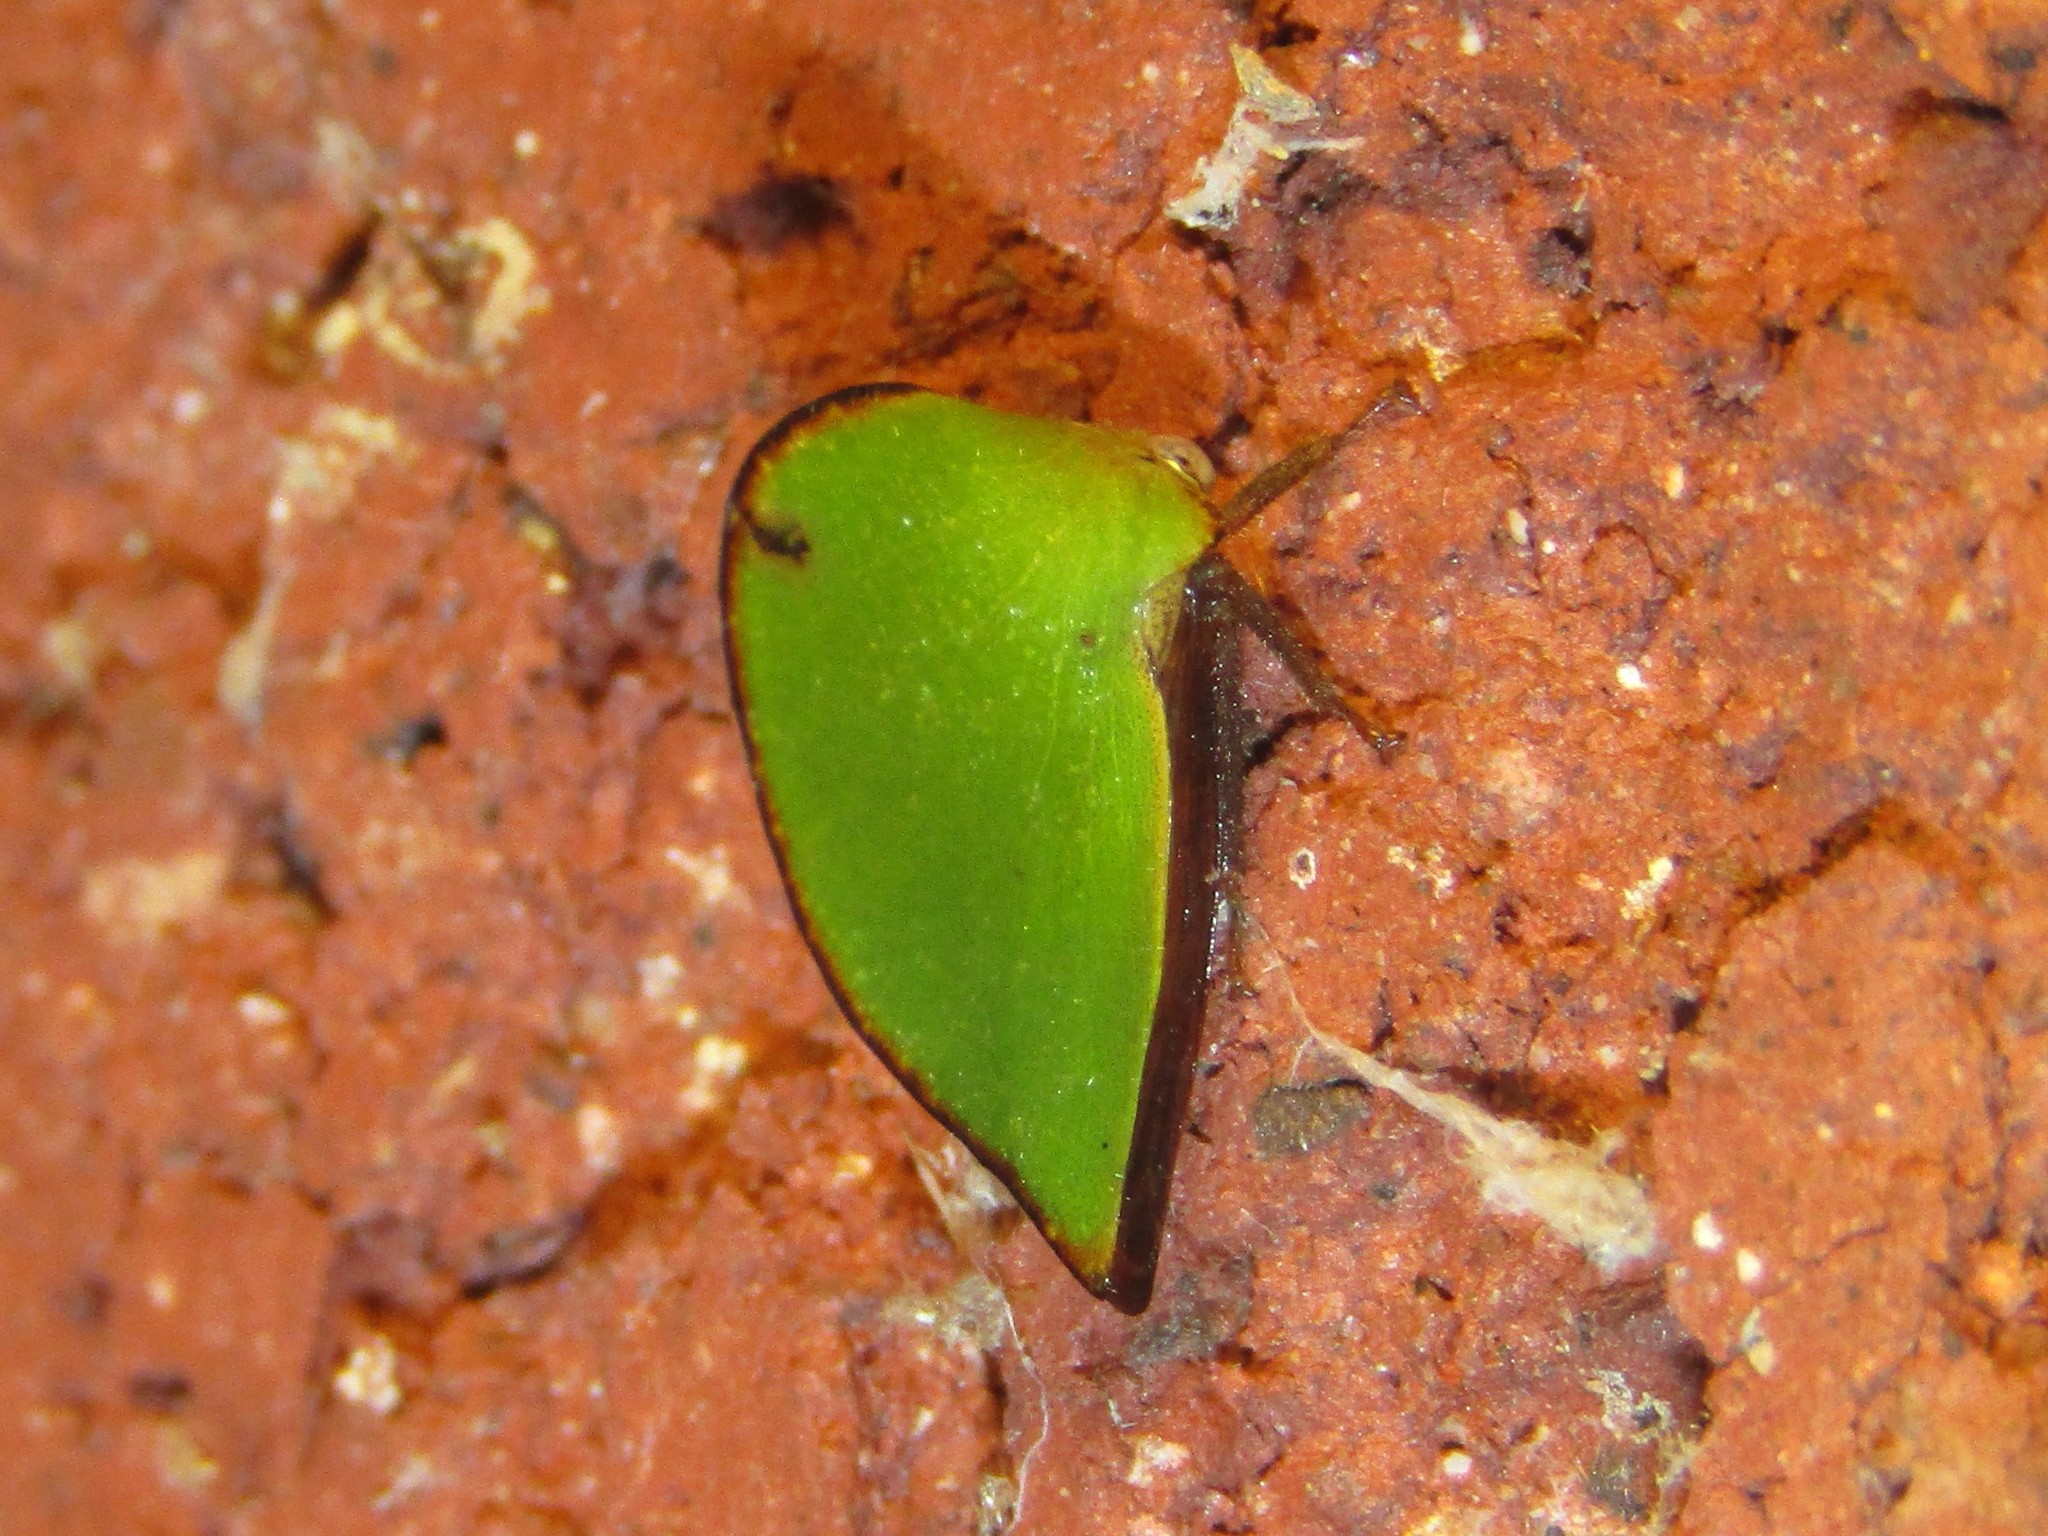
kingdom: Animalia
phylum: Arthropoda
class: Insecta
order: Hemiptera
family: Membracidae
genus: Archasia
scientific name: Archasia belfragei
